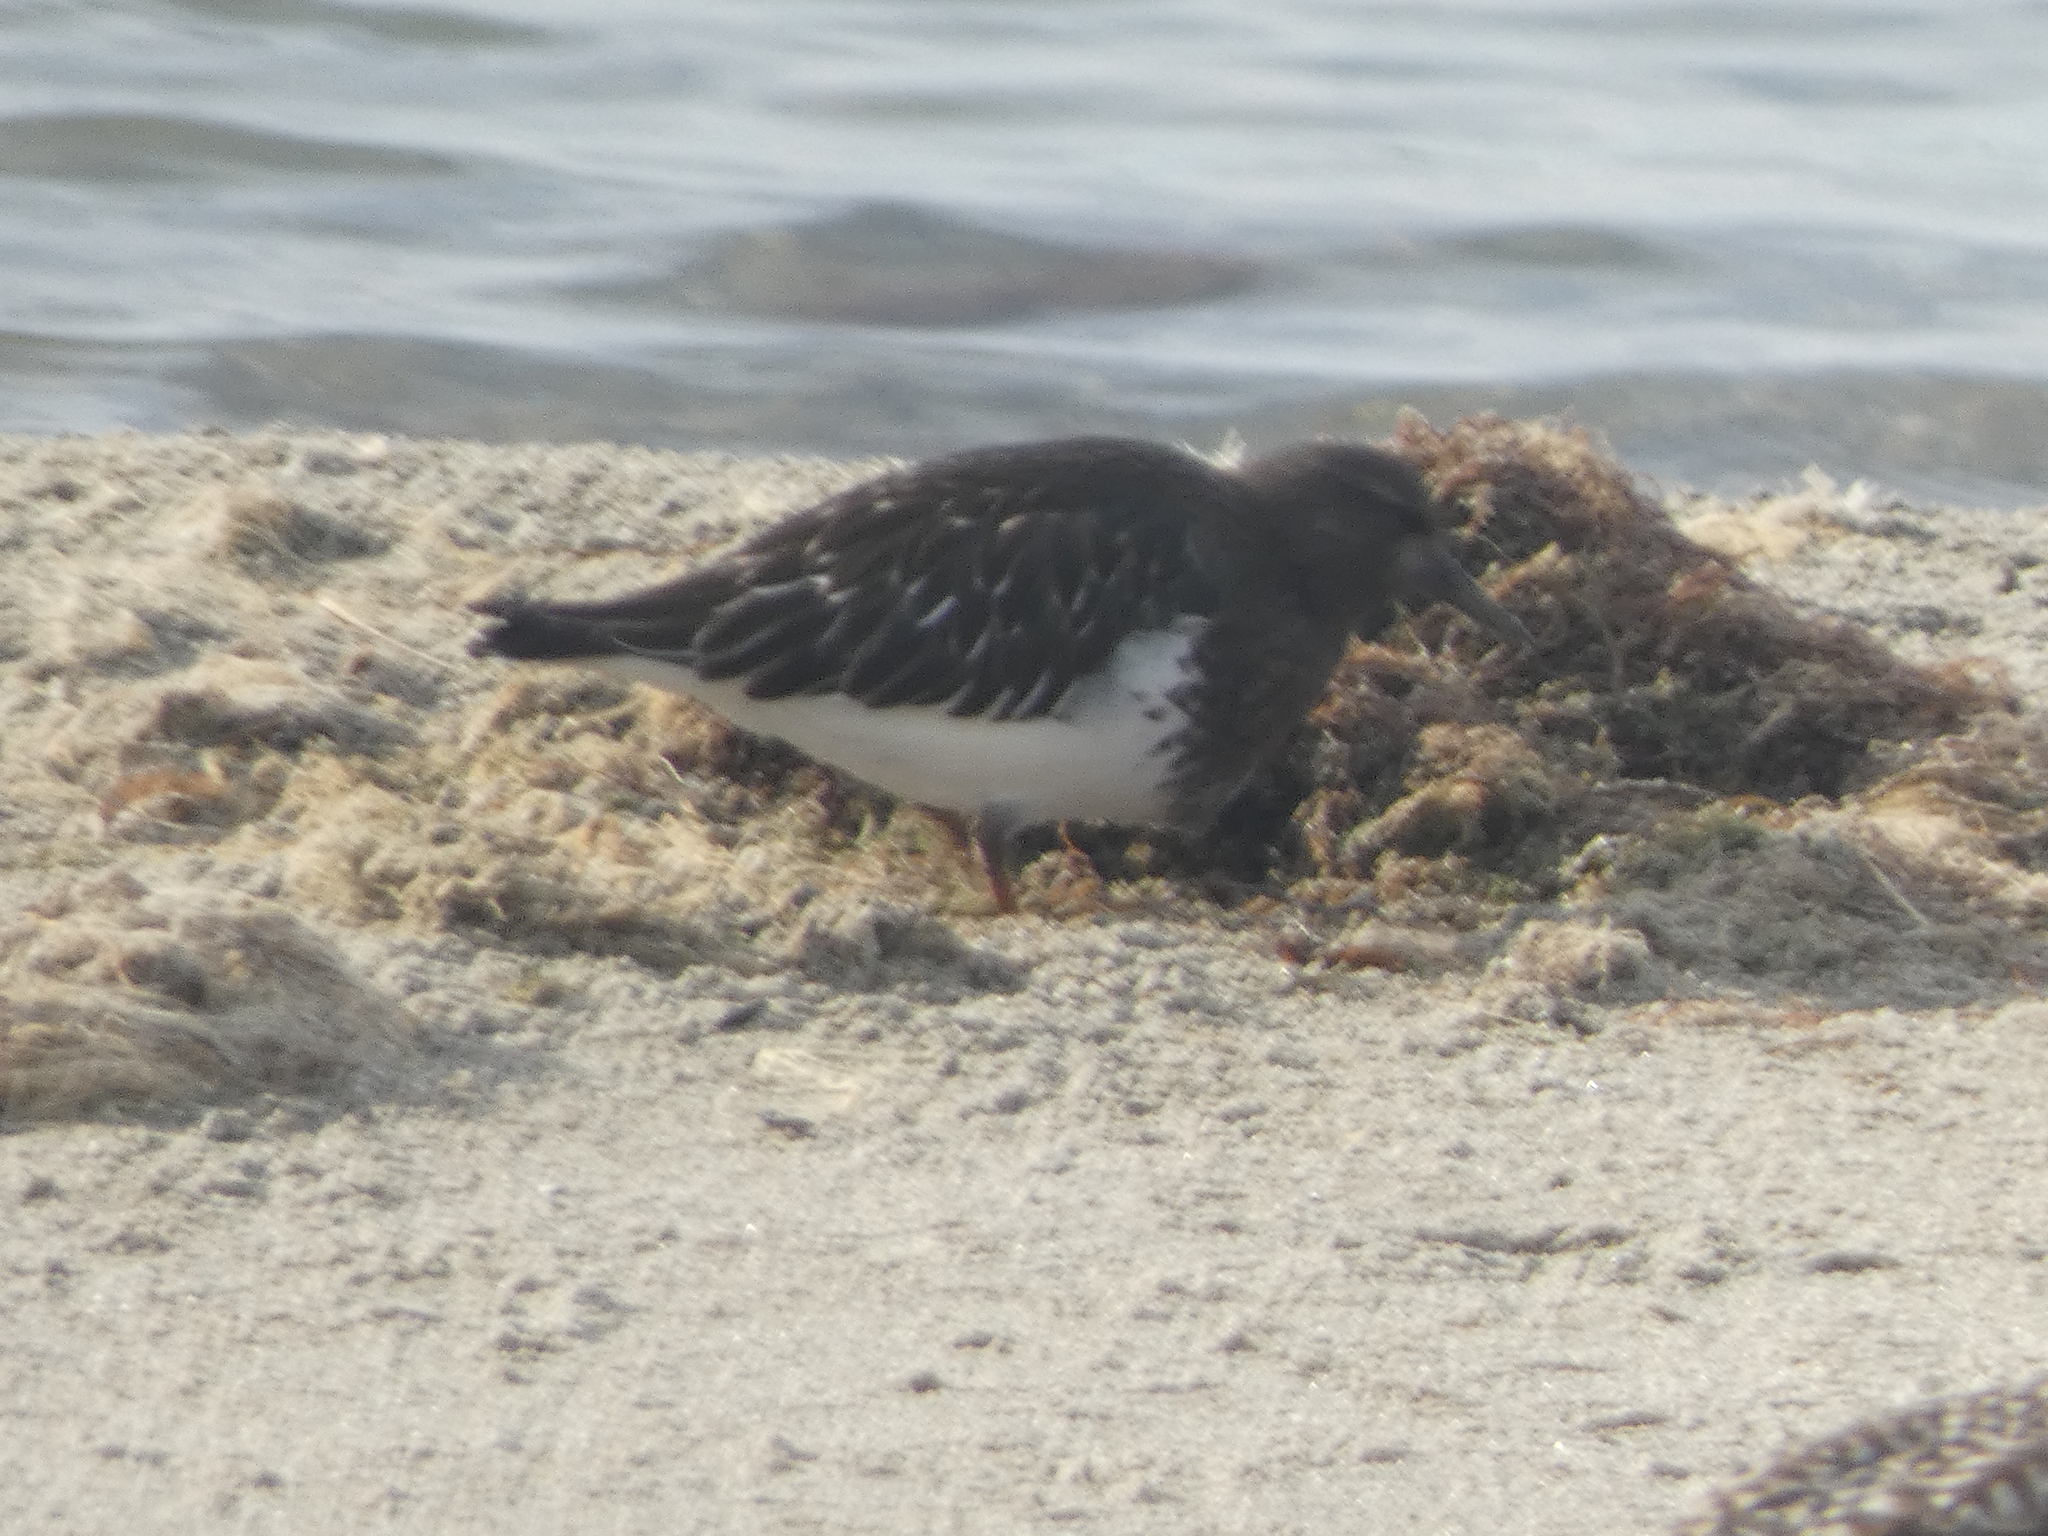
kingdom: Animalia
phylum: Chordata
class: Aves
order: Charadriiformes
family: Scolopacidae
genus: Arenaria
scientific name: Arenaria melanocephala
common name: Black turnstone
